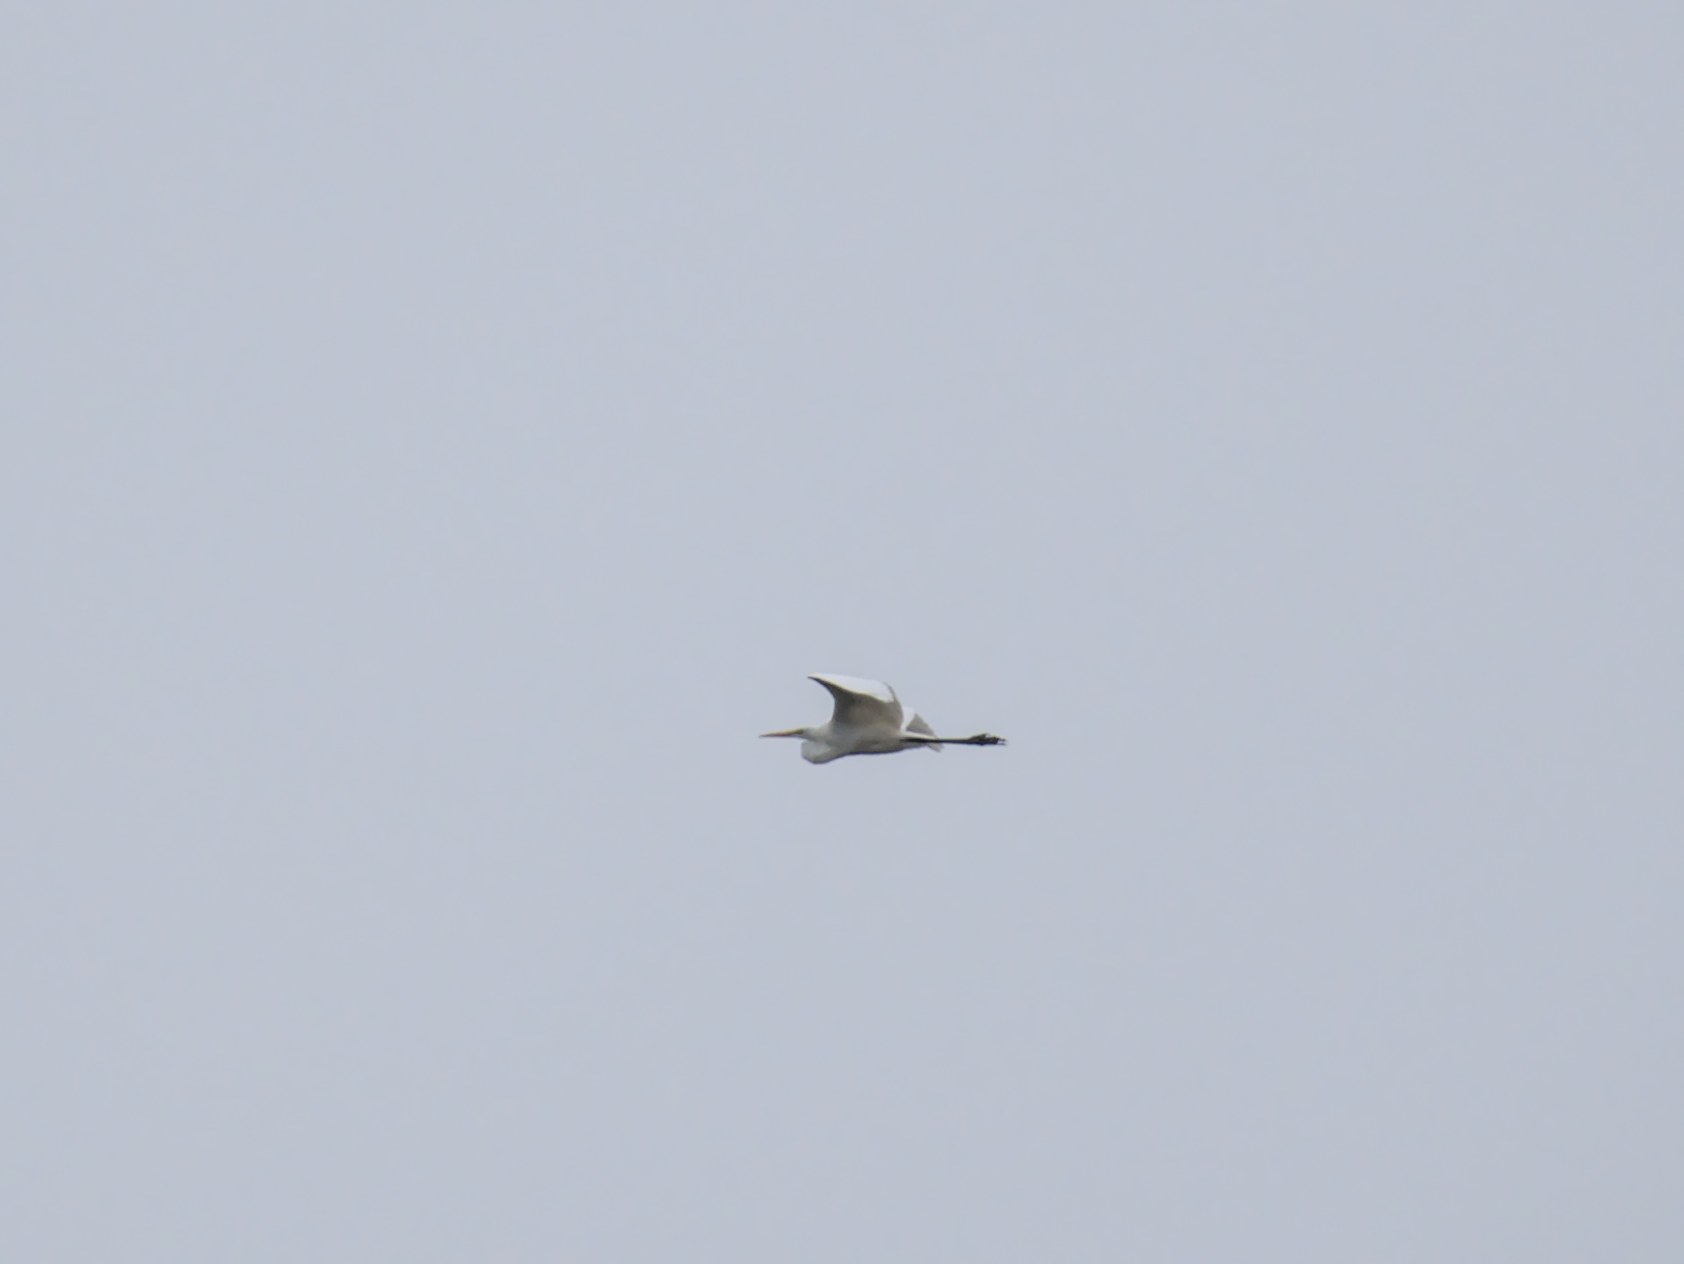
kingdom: Animalia
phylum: Chordata
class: Aves
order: Pelecaniformes
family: Ardeidae
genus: Ardea
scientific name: Ardea alba
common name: Great egret
